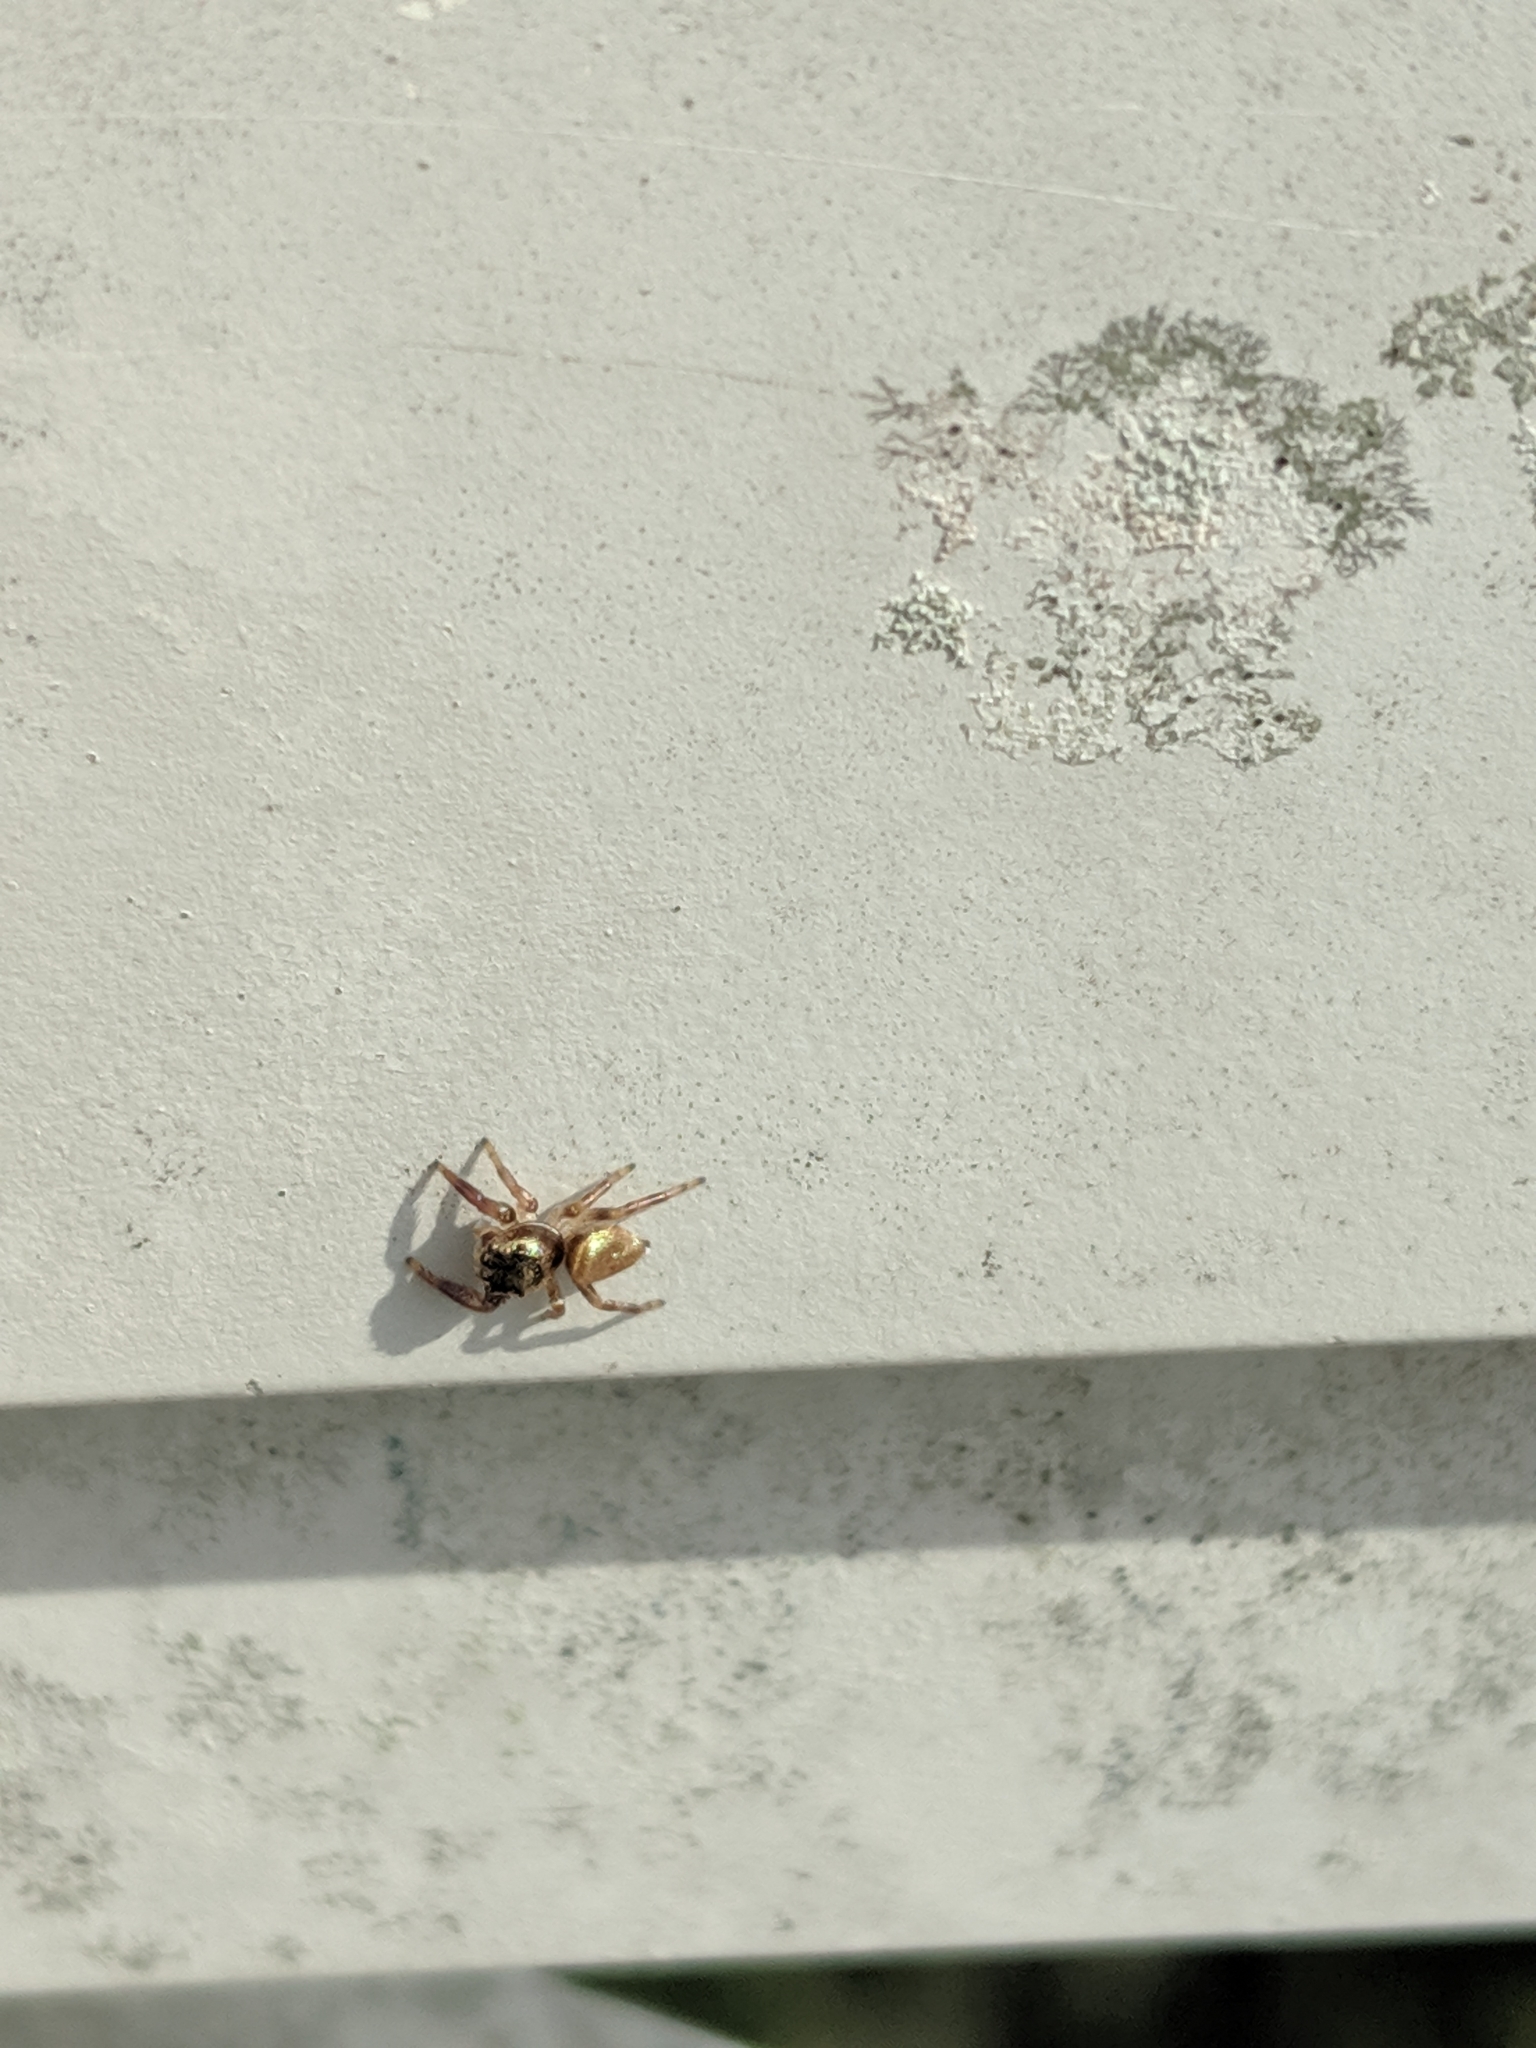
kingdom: Animalia
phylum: Arthropoda
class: Arachnida
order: Araneae
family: Salticidae
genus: Messua
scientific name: Messua limbata
